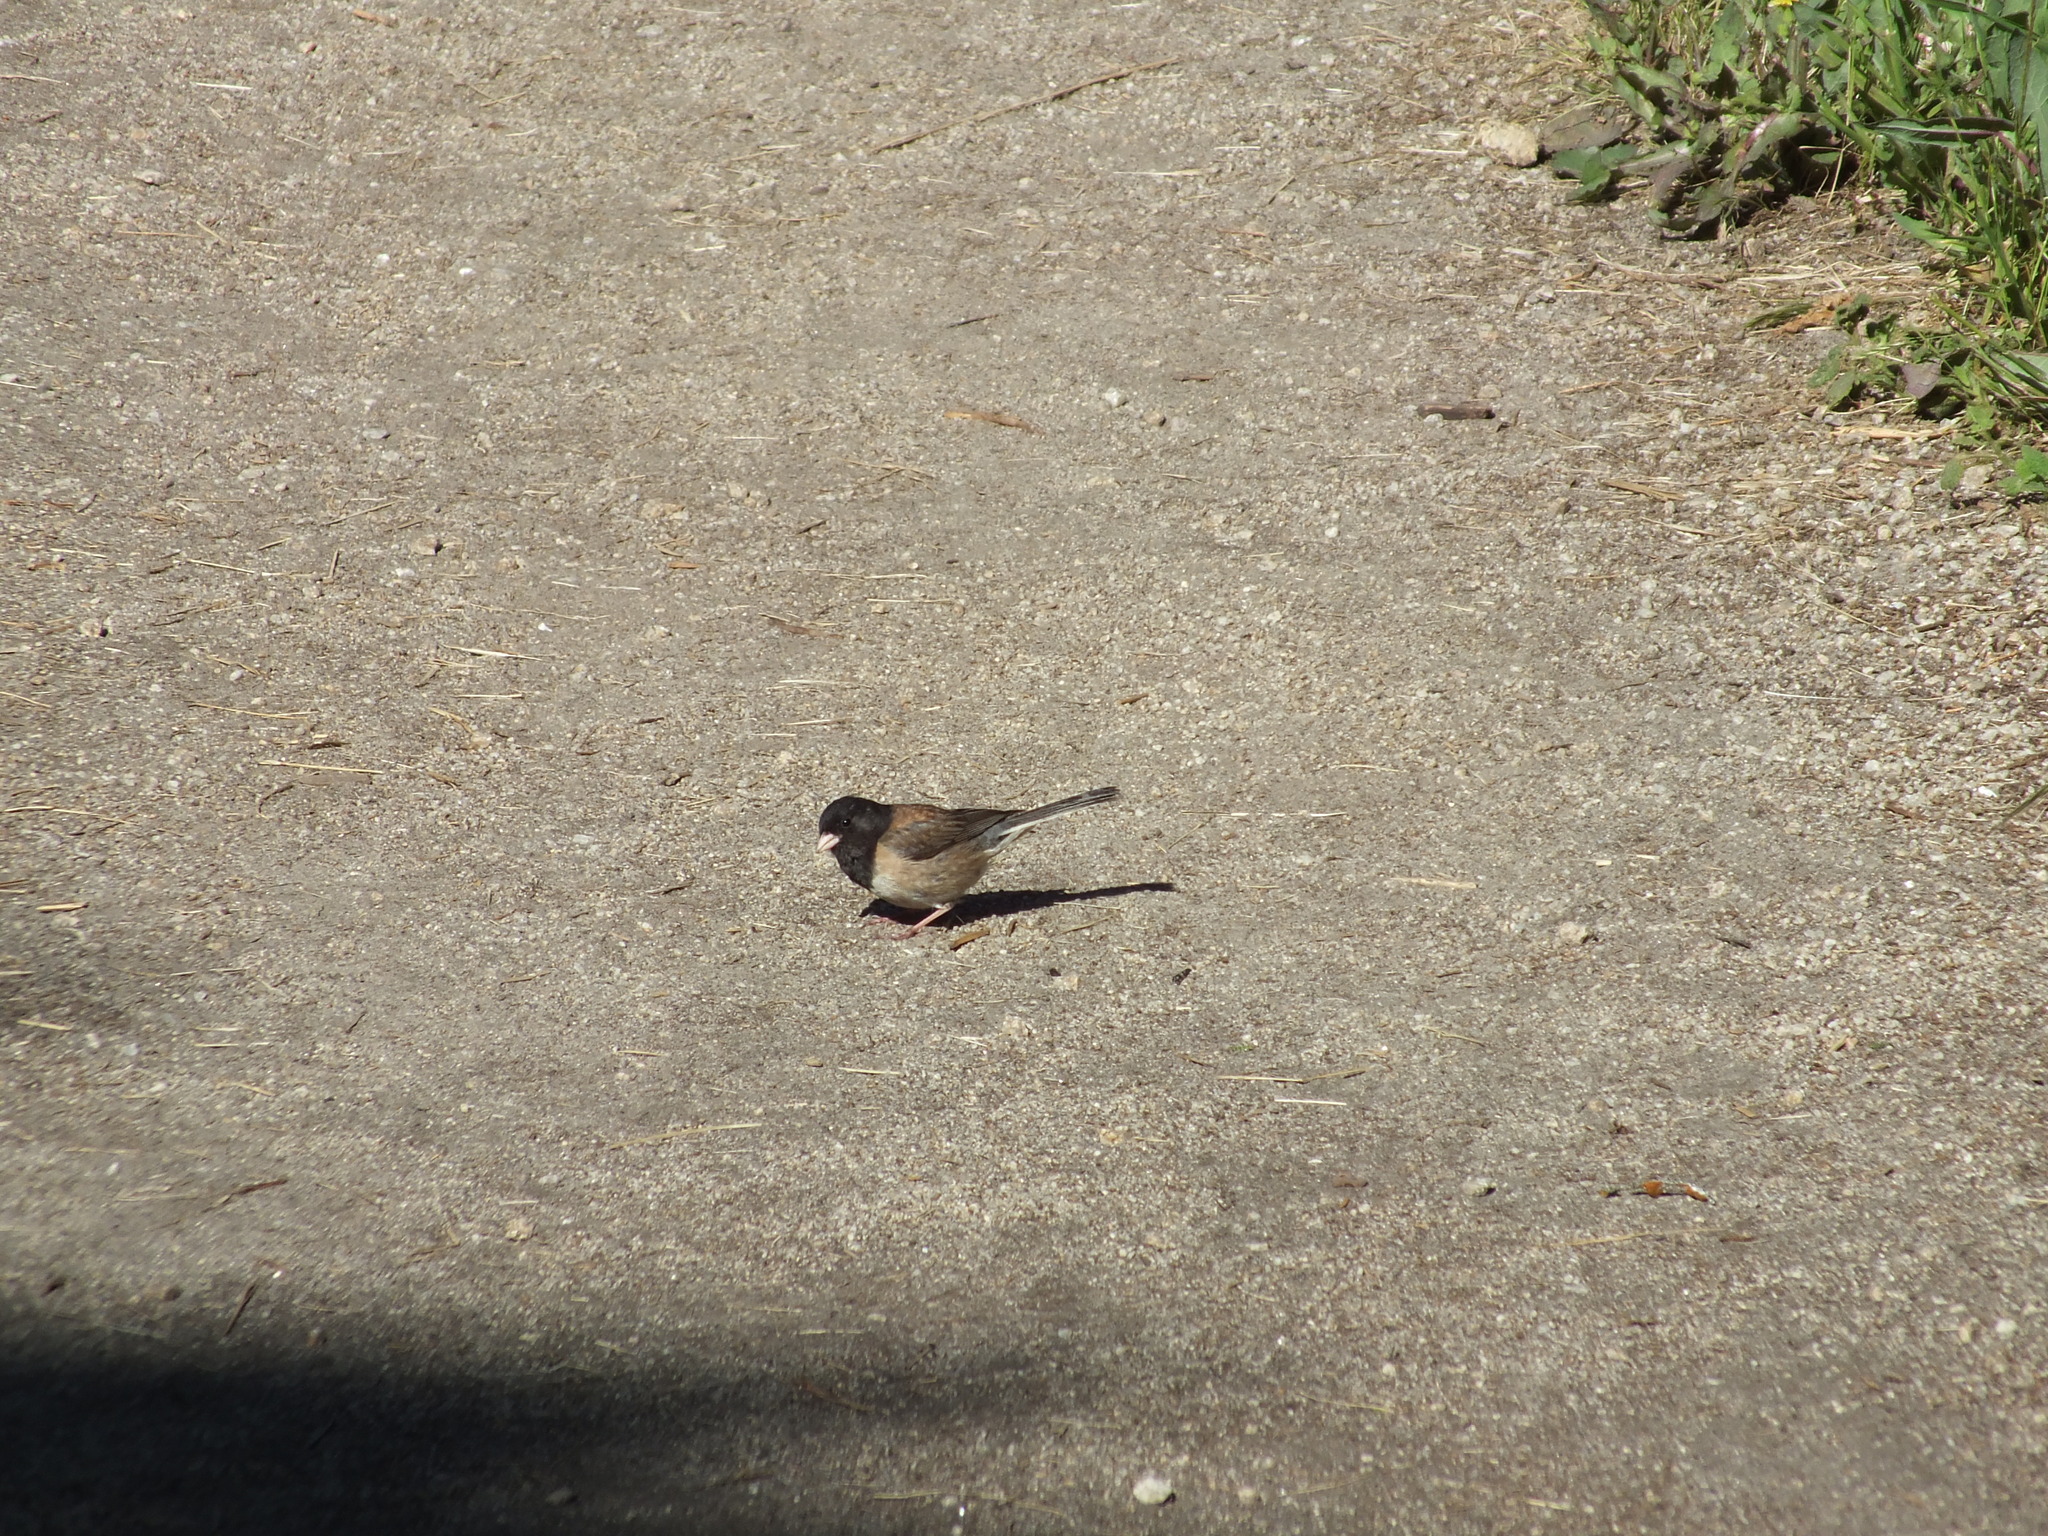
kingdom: Animalia
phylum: Chordata
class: Aves
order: Passeriformes
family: Passerellidae
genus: Junco
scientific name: Junco hyemalis
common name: Dark-eyed junco
